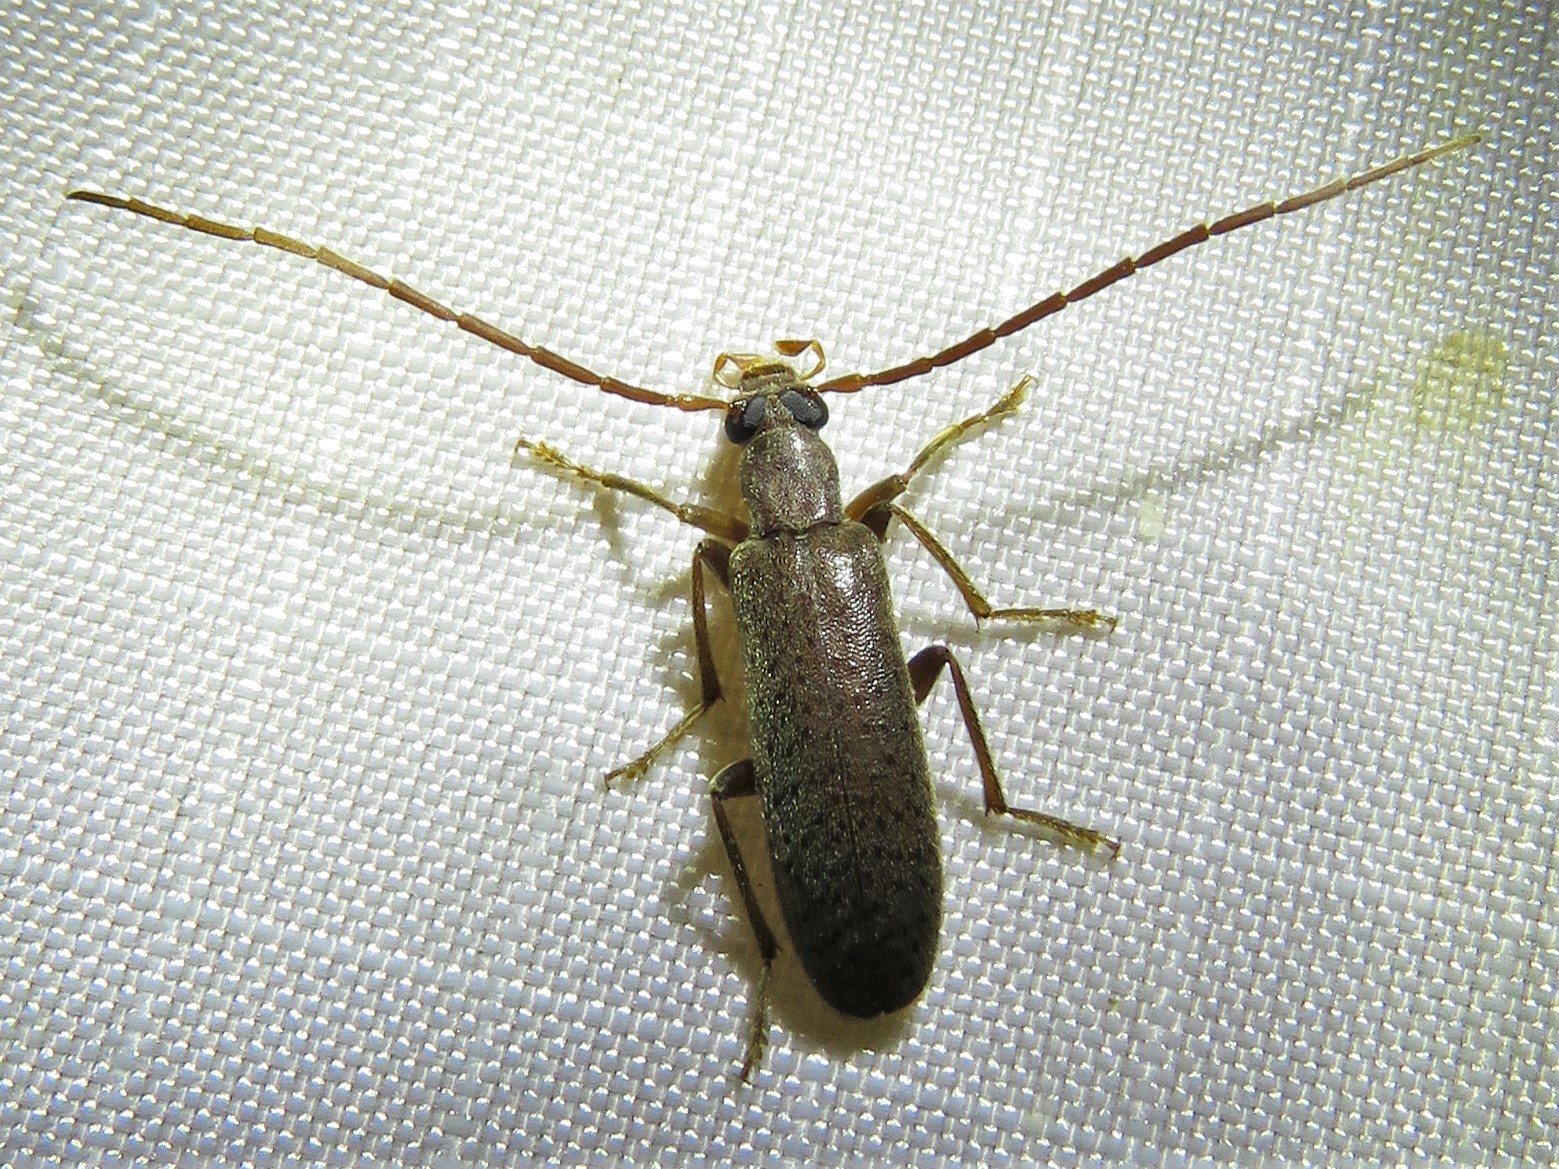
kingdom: Animalia
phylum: Arthropoda
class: Insecta
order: Coleoptera
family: Oedemeridae
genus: Sparedrus
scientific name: Sparedrus aspersus
